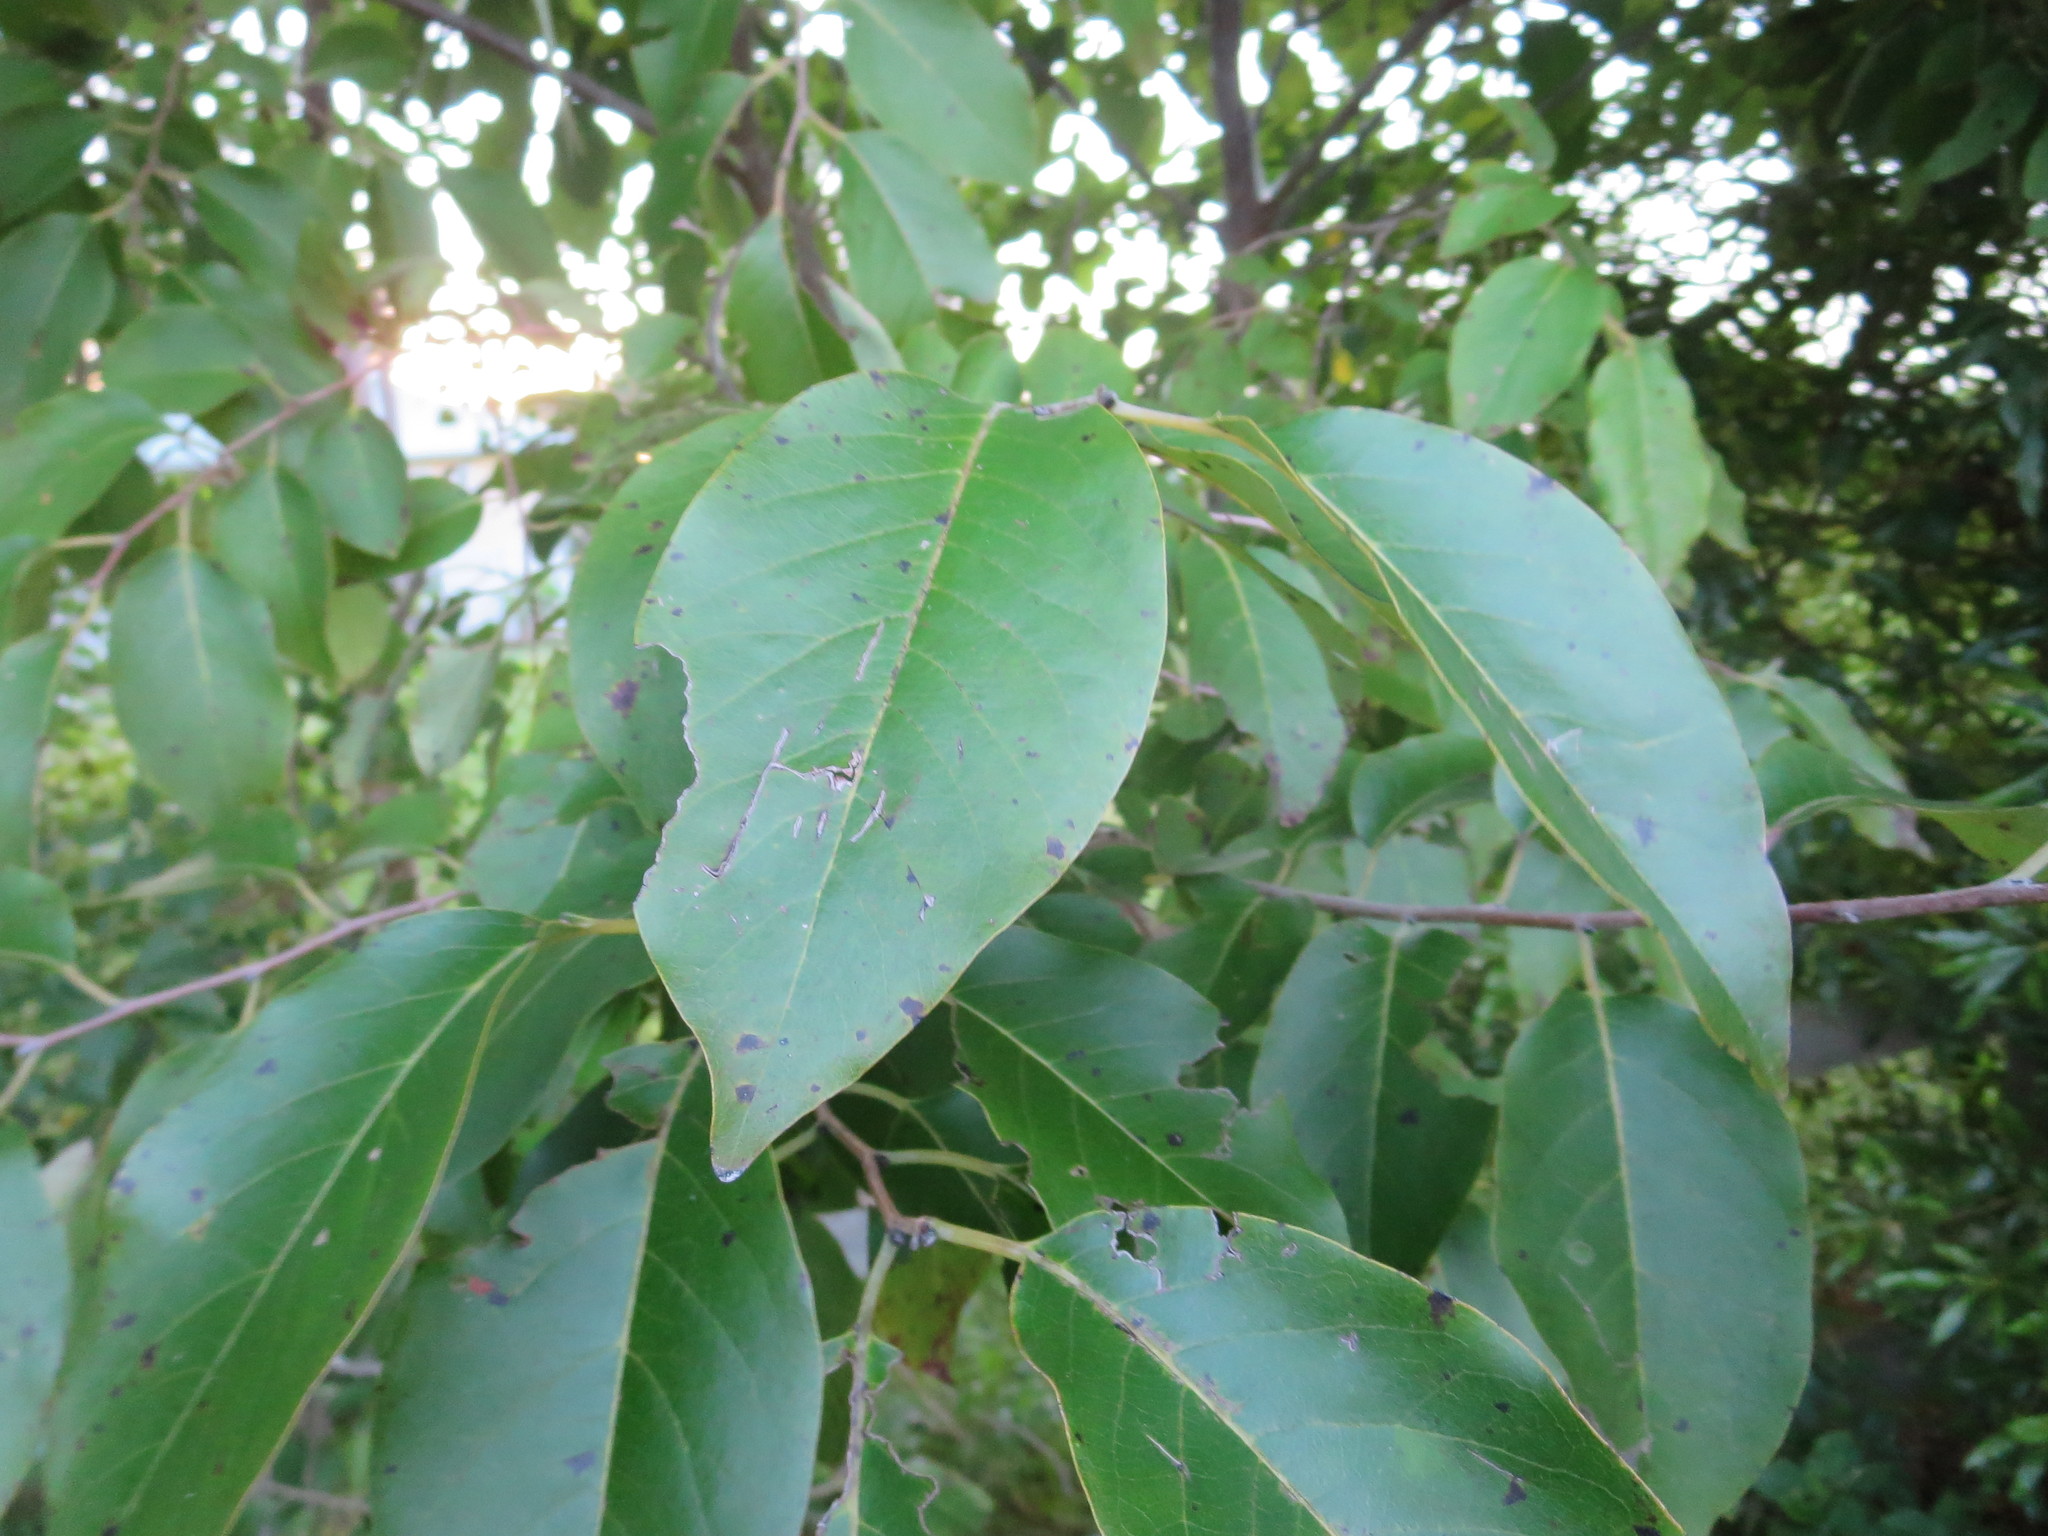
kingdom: Plantae
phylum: Tracheophyta
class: Magnoliopsida
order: Ericales
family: Ebenaceae
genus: Diospyros
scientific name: Diospyros virginiana
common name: Persimmon
